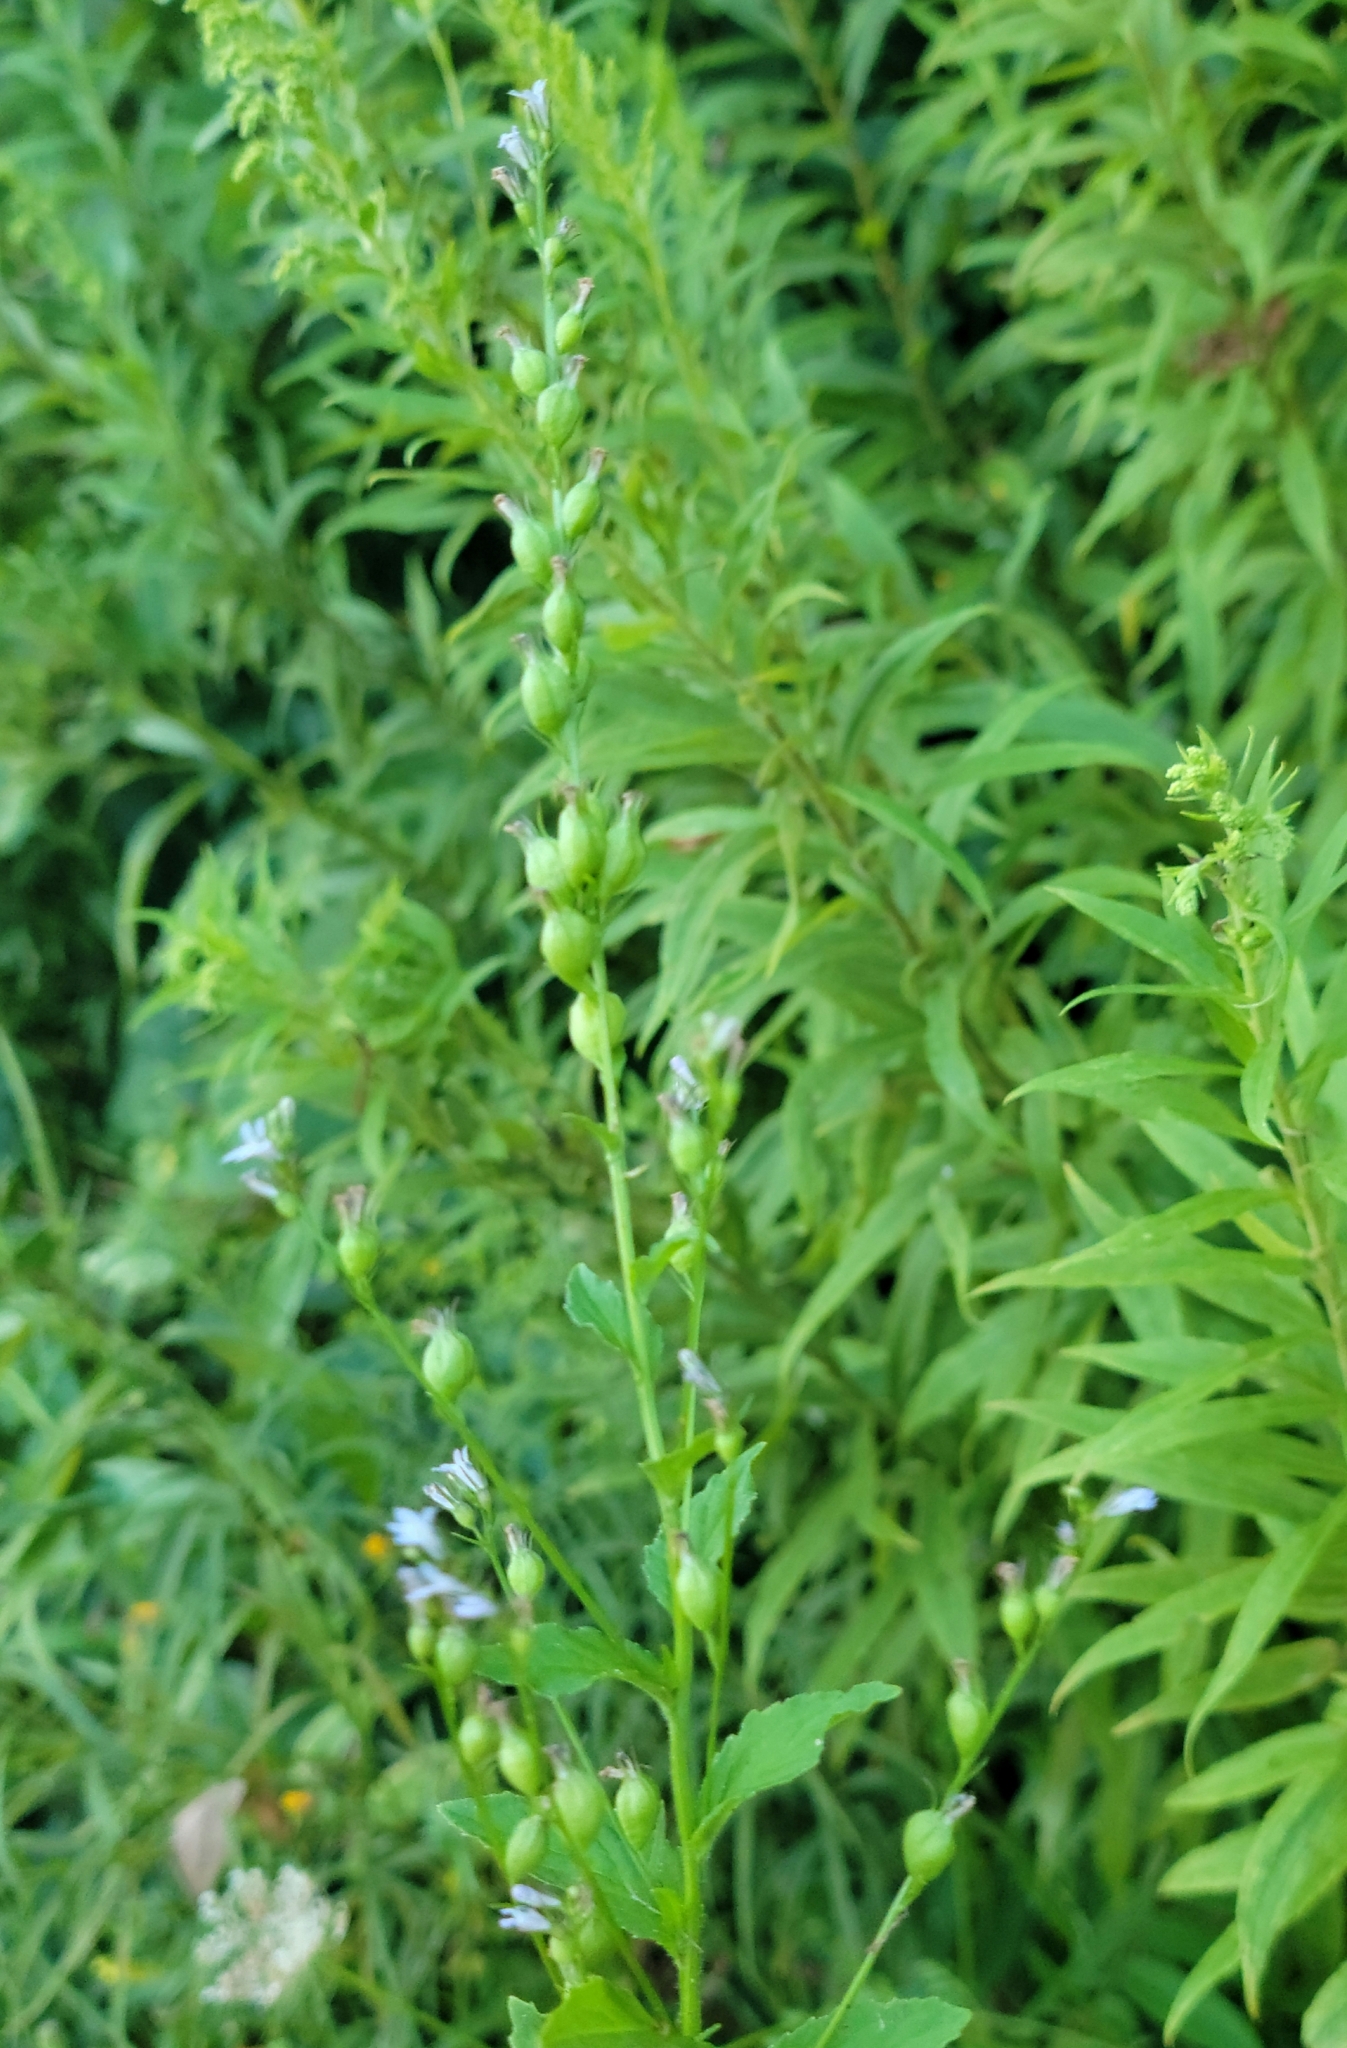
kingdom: Plantae
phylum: Tracheophyta
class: Magnoliopsida
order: Asterales
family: Campanulaceae
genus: Lobelia
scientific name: Lobelia inflata
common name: Indian tobacco
